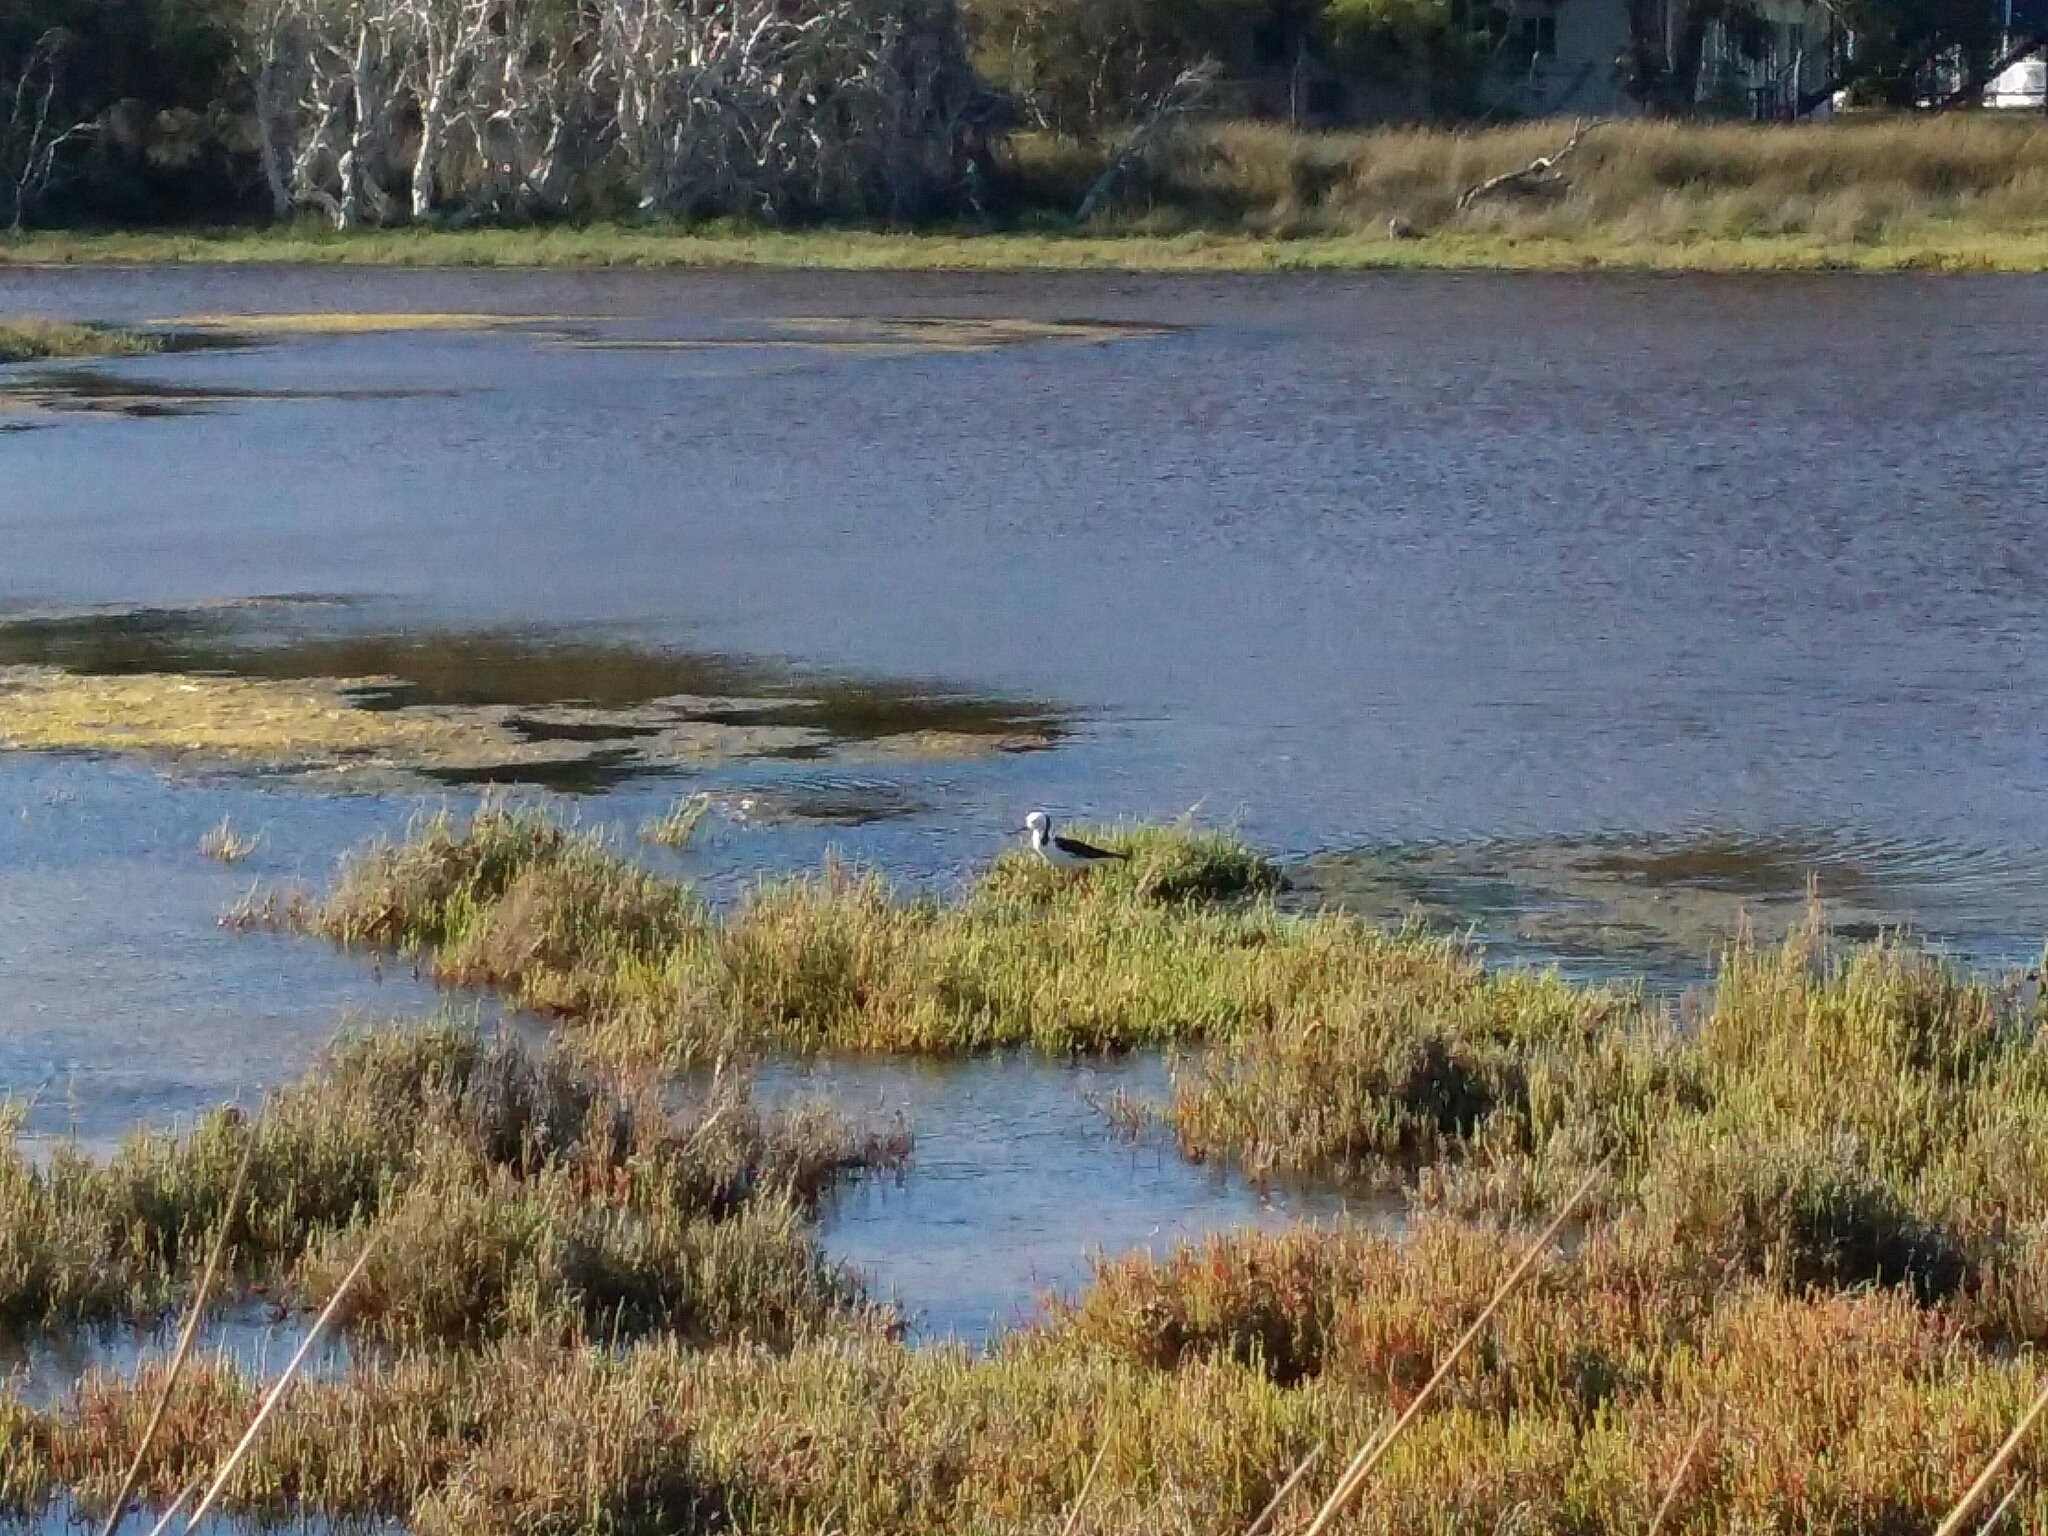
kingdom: Animalia
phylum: Chordata
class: Aves
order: Charadriiformes
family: Recurvirostridae
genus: Himantopus
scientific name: Himantopus leucocephalus
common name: White-headed stilt
